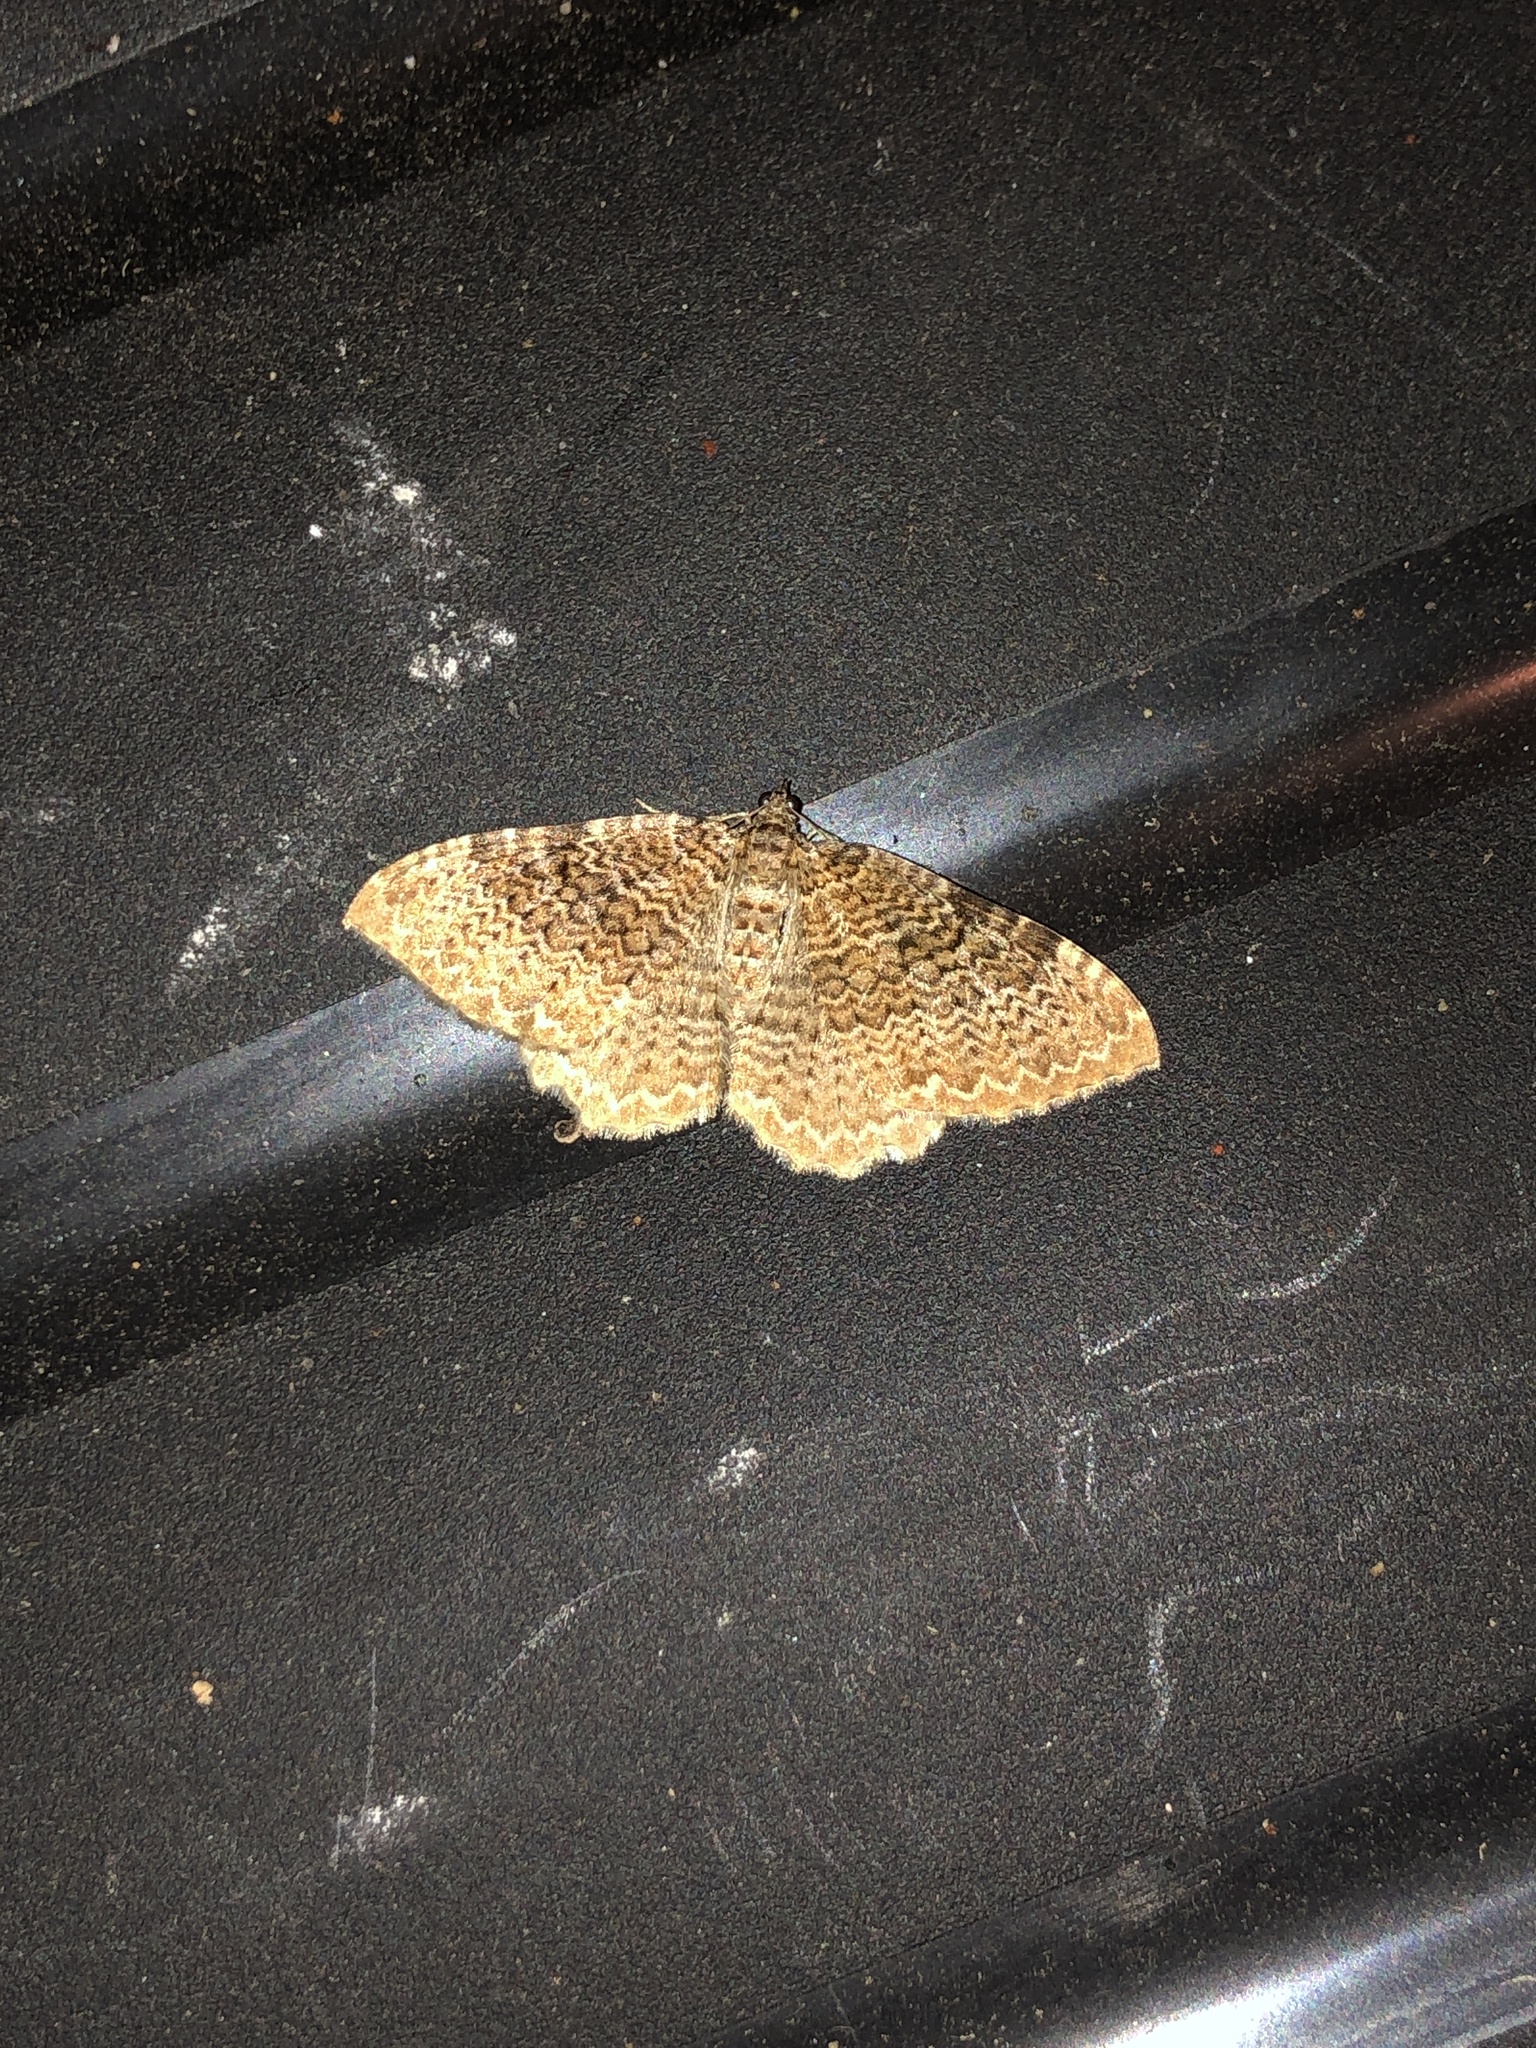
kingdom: Animalia
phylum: Arthropoda
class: Insecta
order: Lepidoptera
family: Geometridae
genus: Rheumaptera
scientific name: Rheumaptera undulata
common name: Scallop shell
